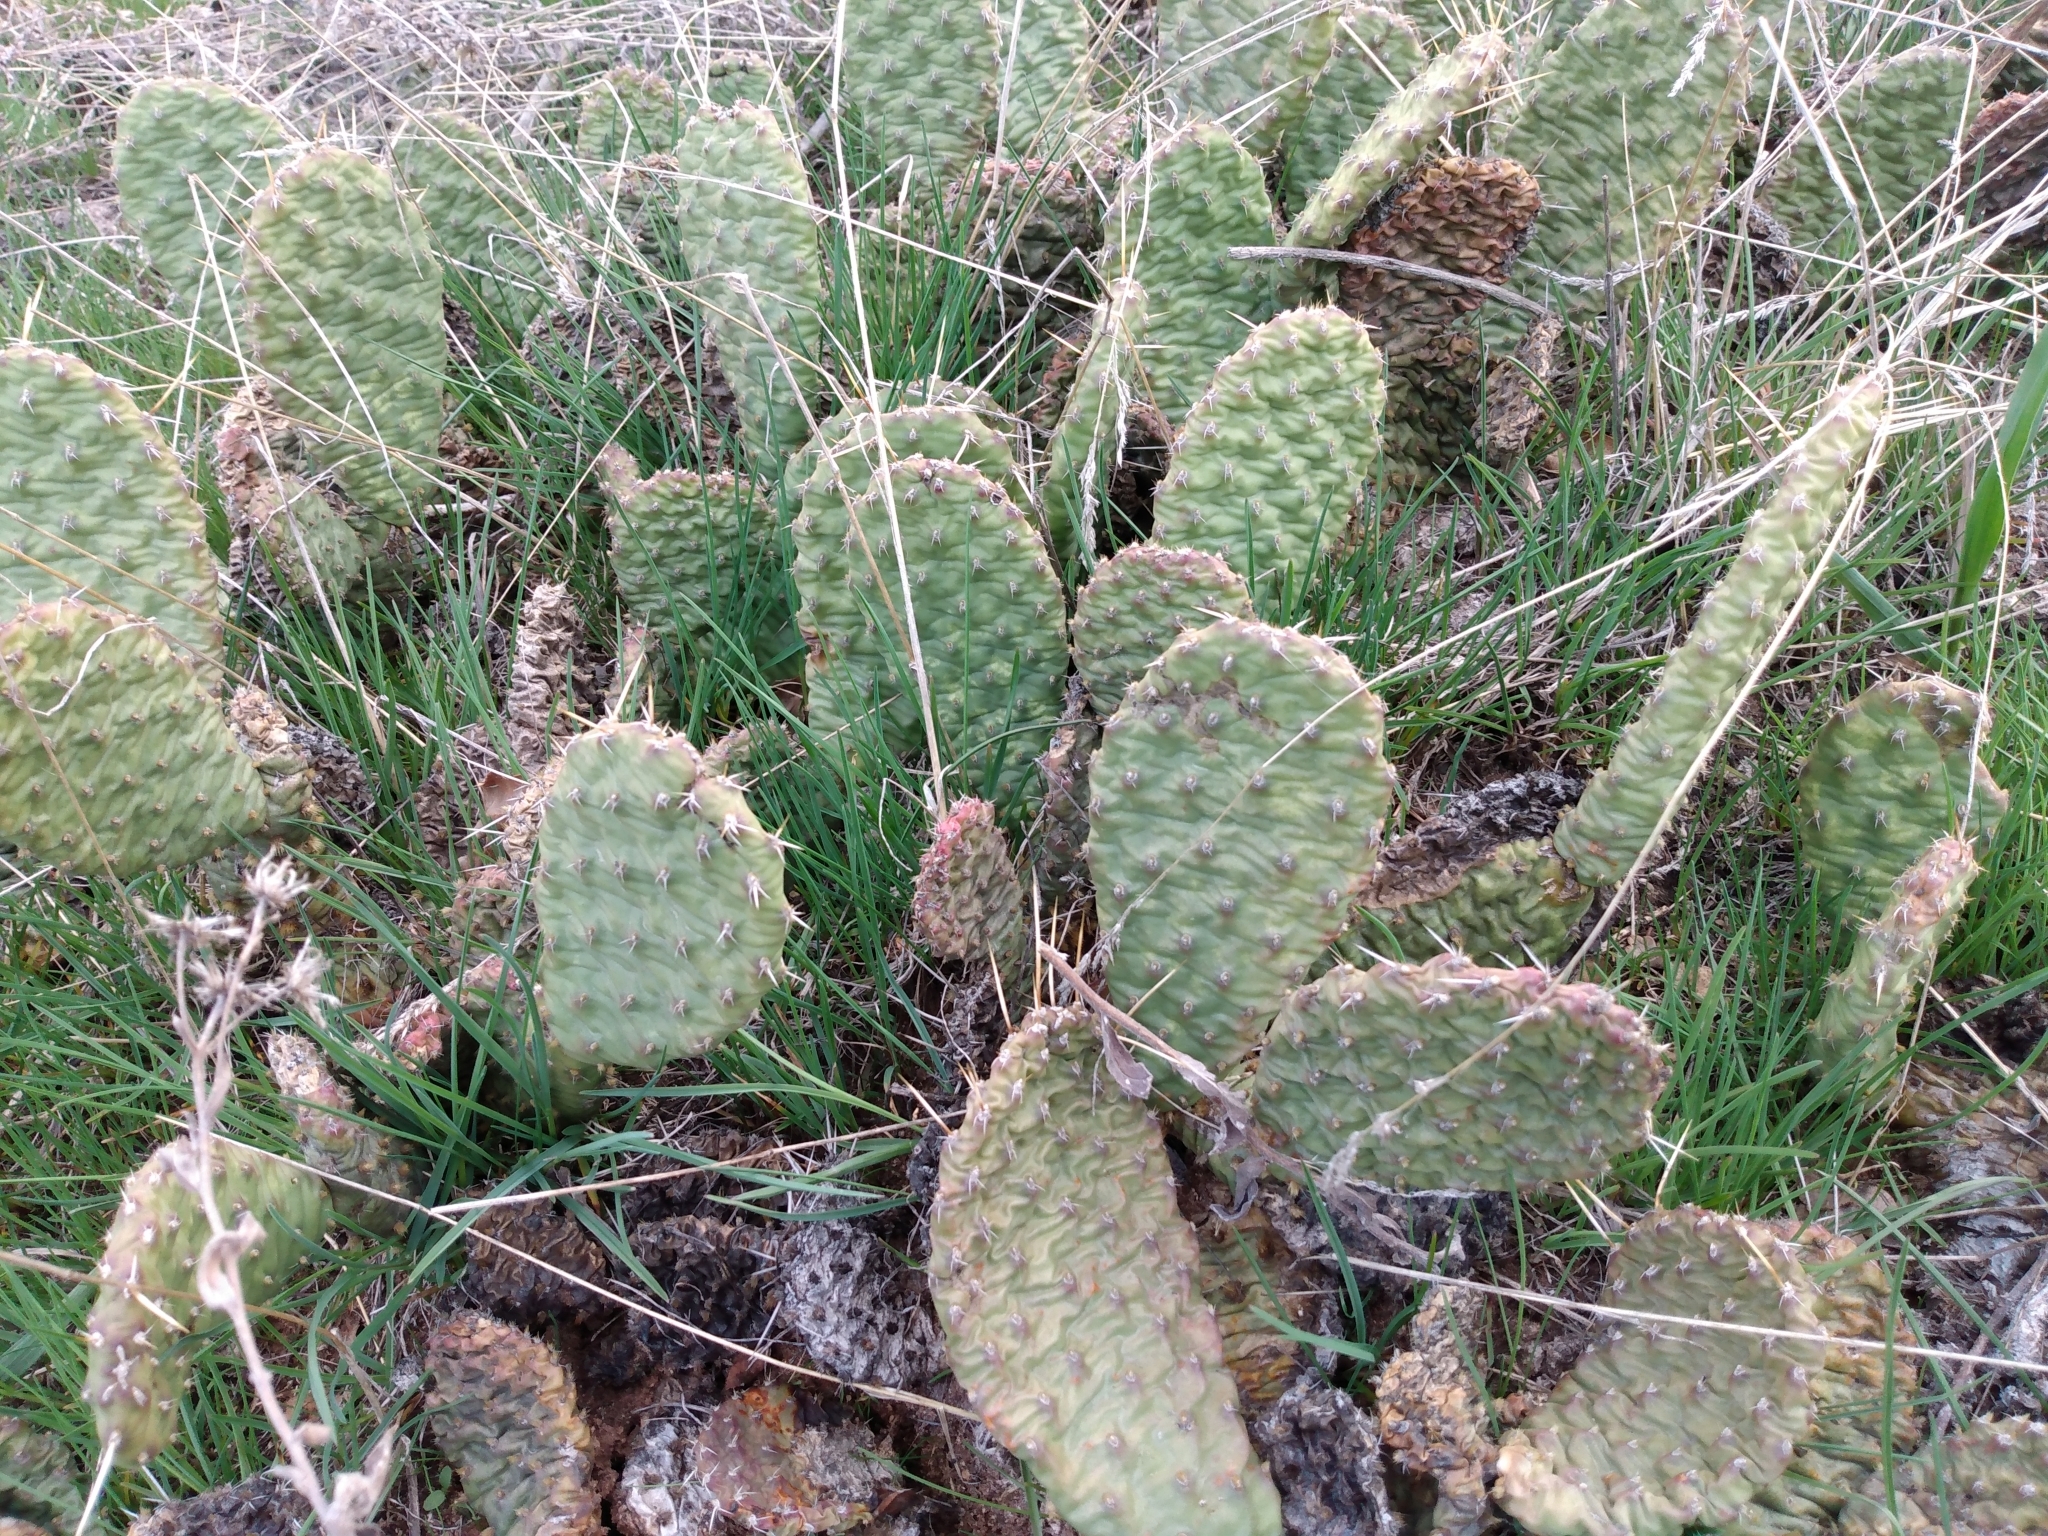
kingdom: Plantae
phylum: Tracheophyta
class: Magnoliopsida
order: Caryophyllales
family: Cactaceae
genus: Opuntia
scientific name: Opuntia polyacantha
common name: Plains prickly-pear
